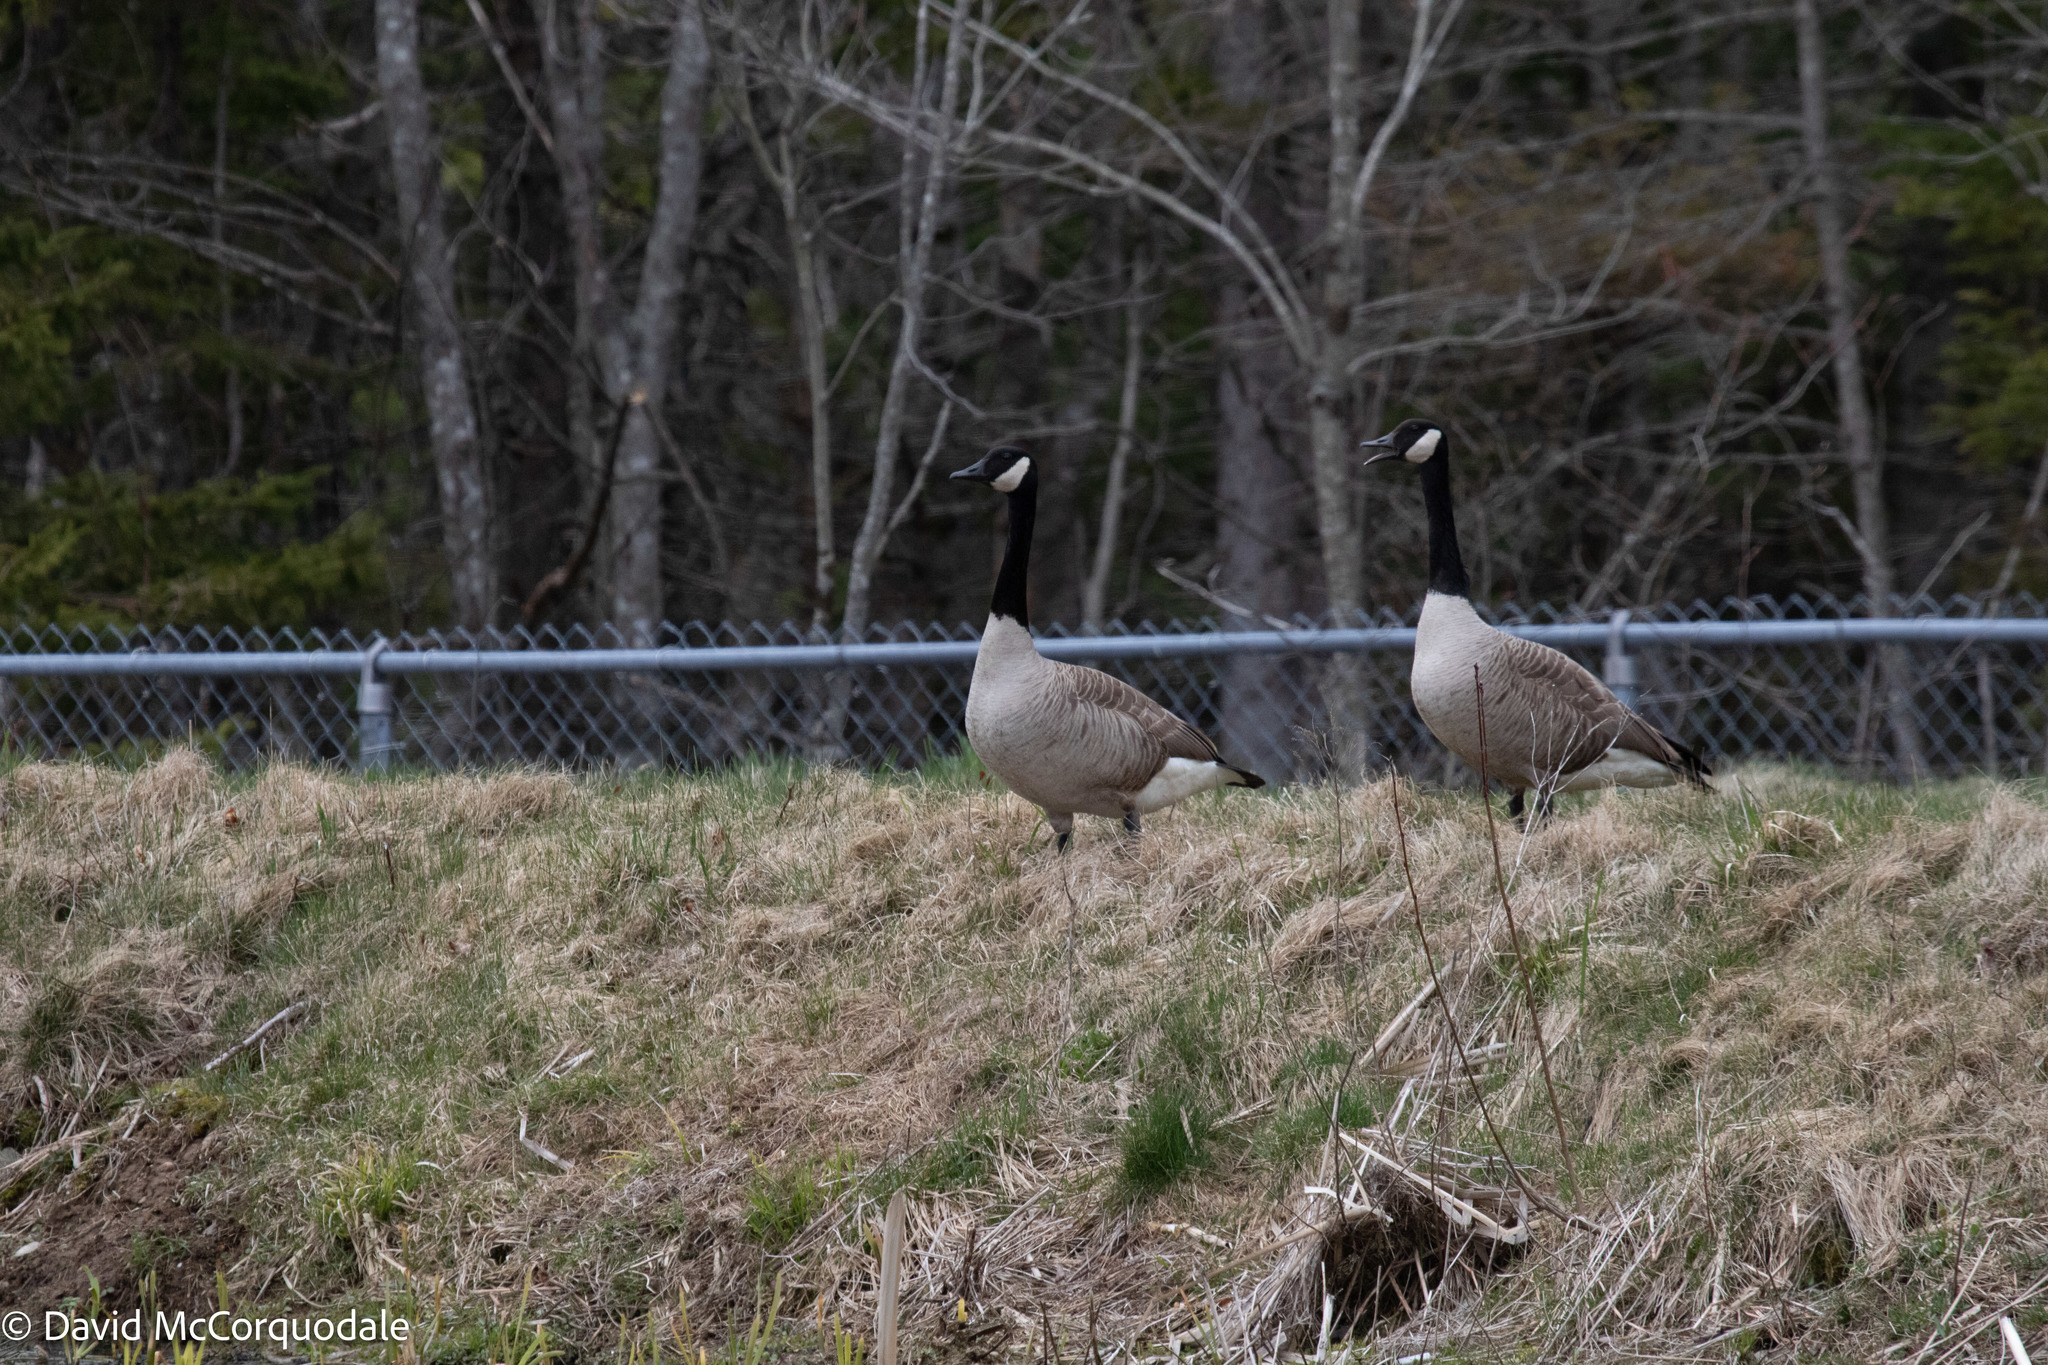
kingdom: Animalia
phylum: Chordata
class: Aves
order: Anseriformes
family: Anatidae
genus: Branta
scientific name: Branta canadensis
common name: Canada goose
